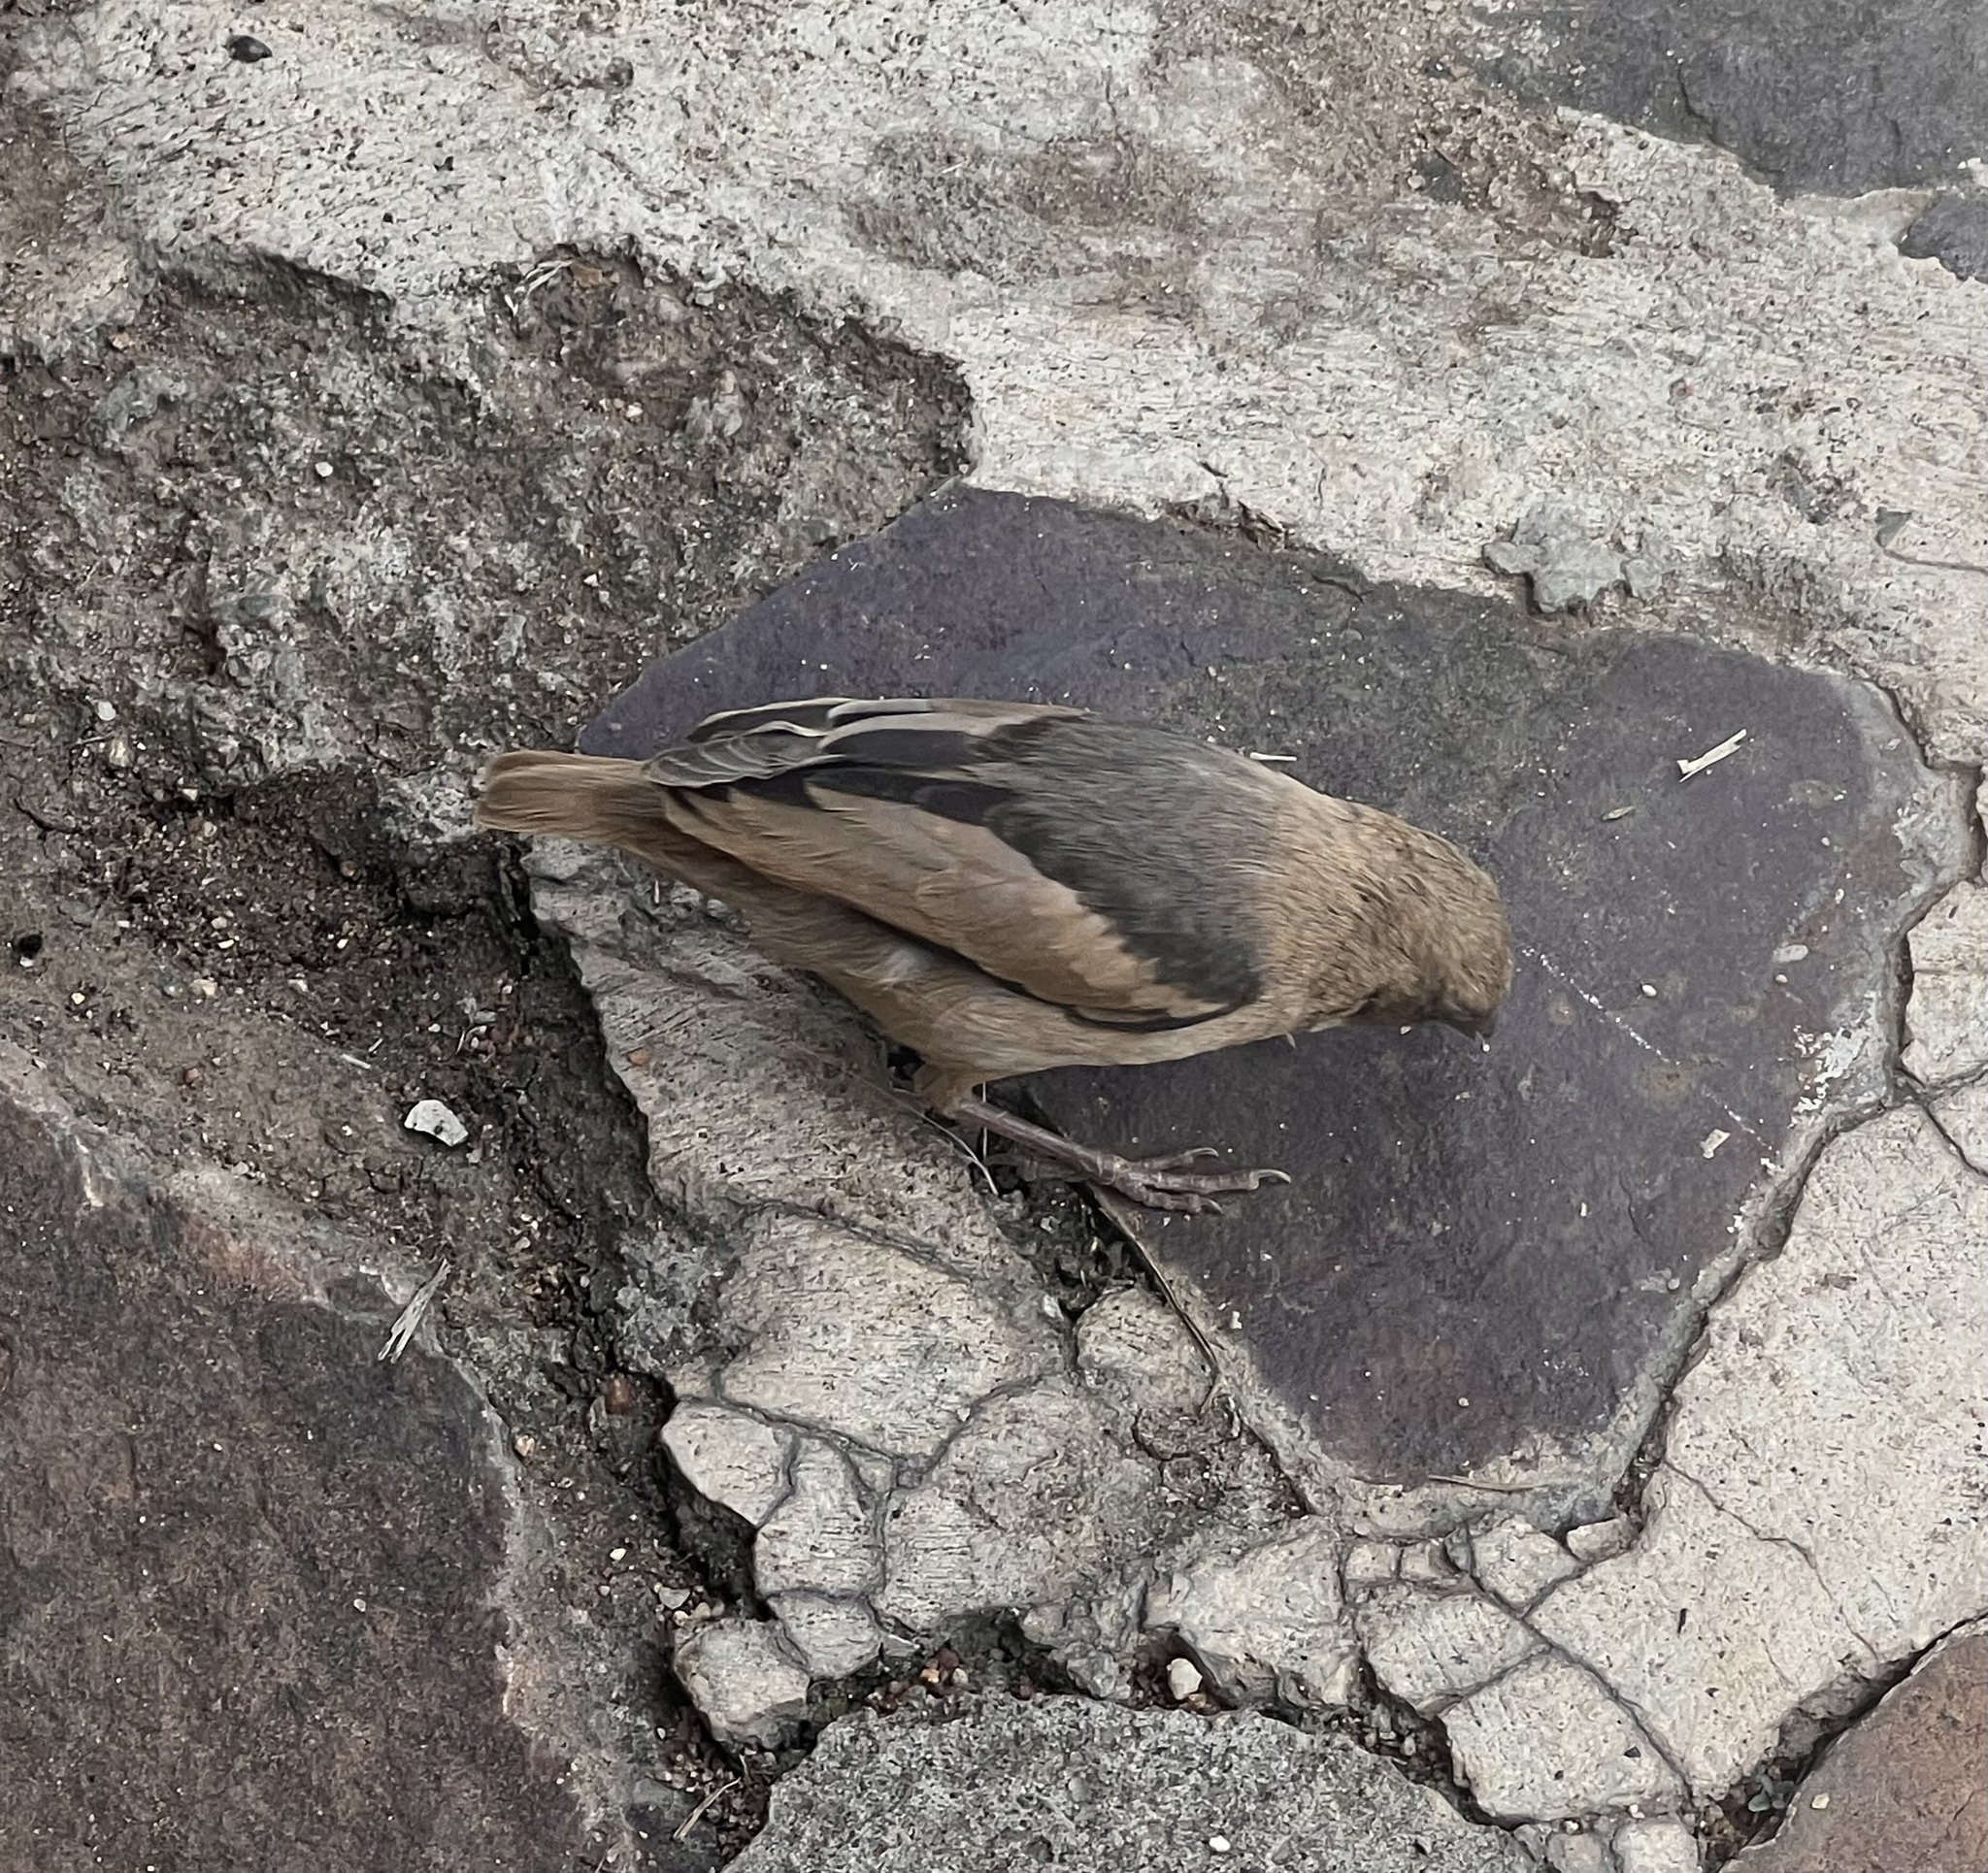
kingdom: Animalia
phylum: Chordata
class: Aves
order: Passeriformes
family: Passeridae
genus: Pseudonigrita
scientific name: Pseudonigrita arnaudi
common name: Grey-capped social weaver
